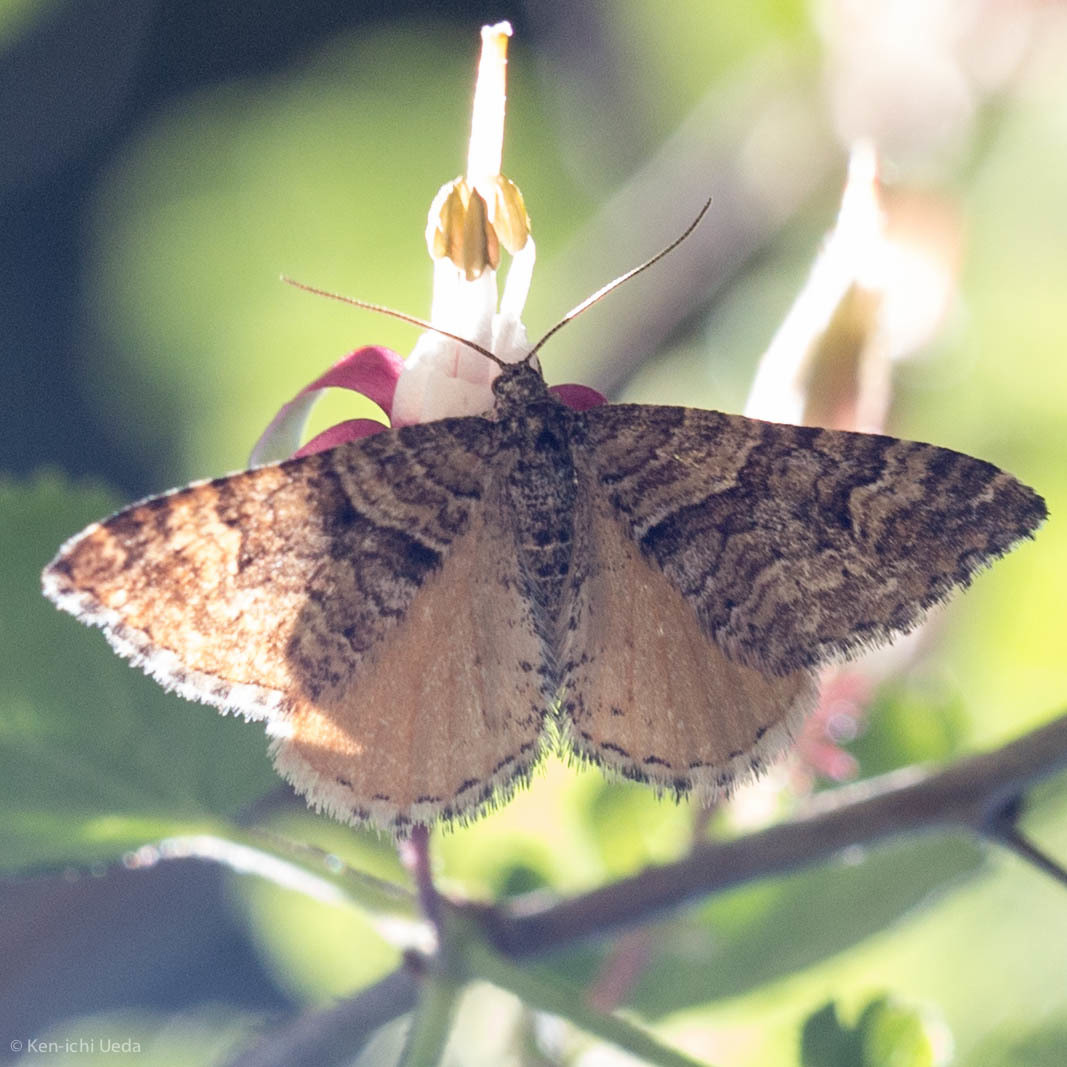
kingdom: Animalia
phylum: Arthropoda
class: Insecta
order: Lepidoptera
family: Geometridae
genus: Epirrhoe
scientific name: Epirrhoe plebeculata
